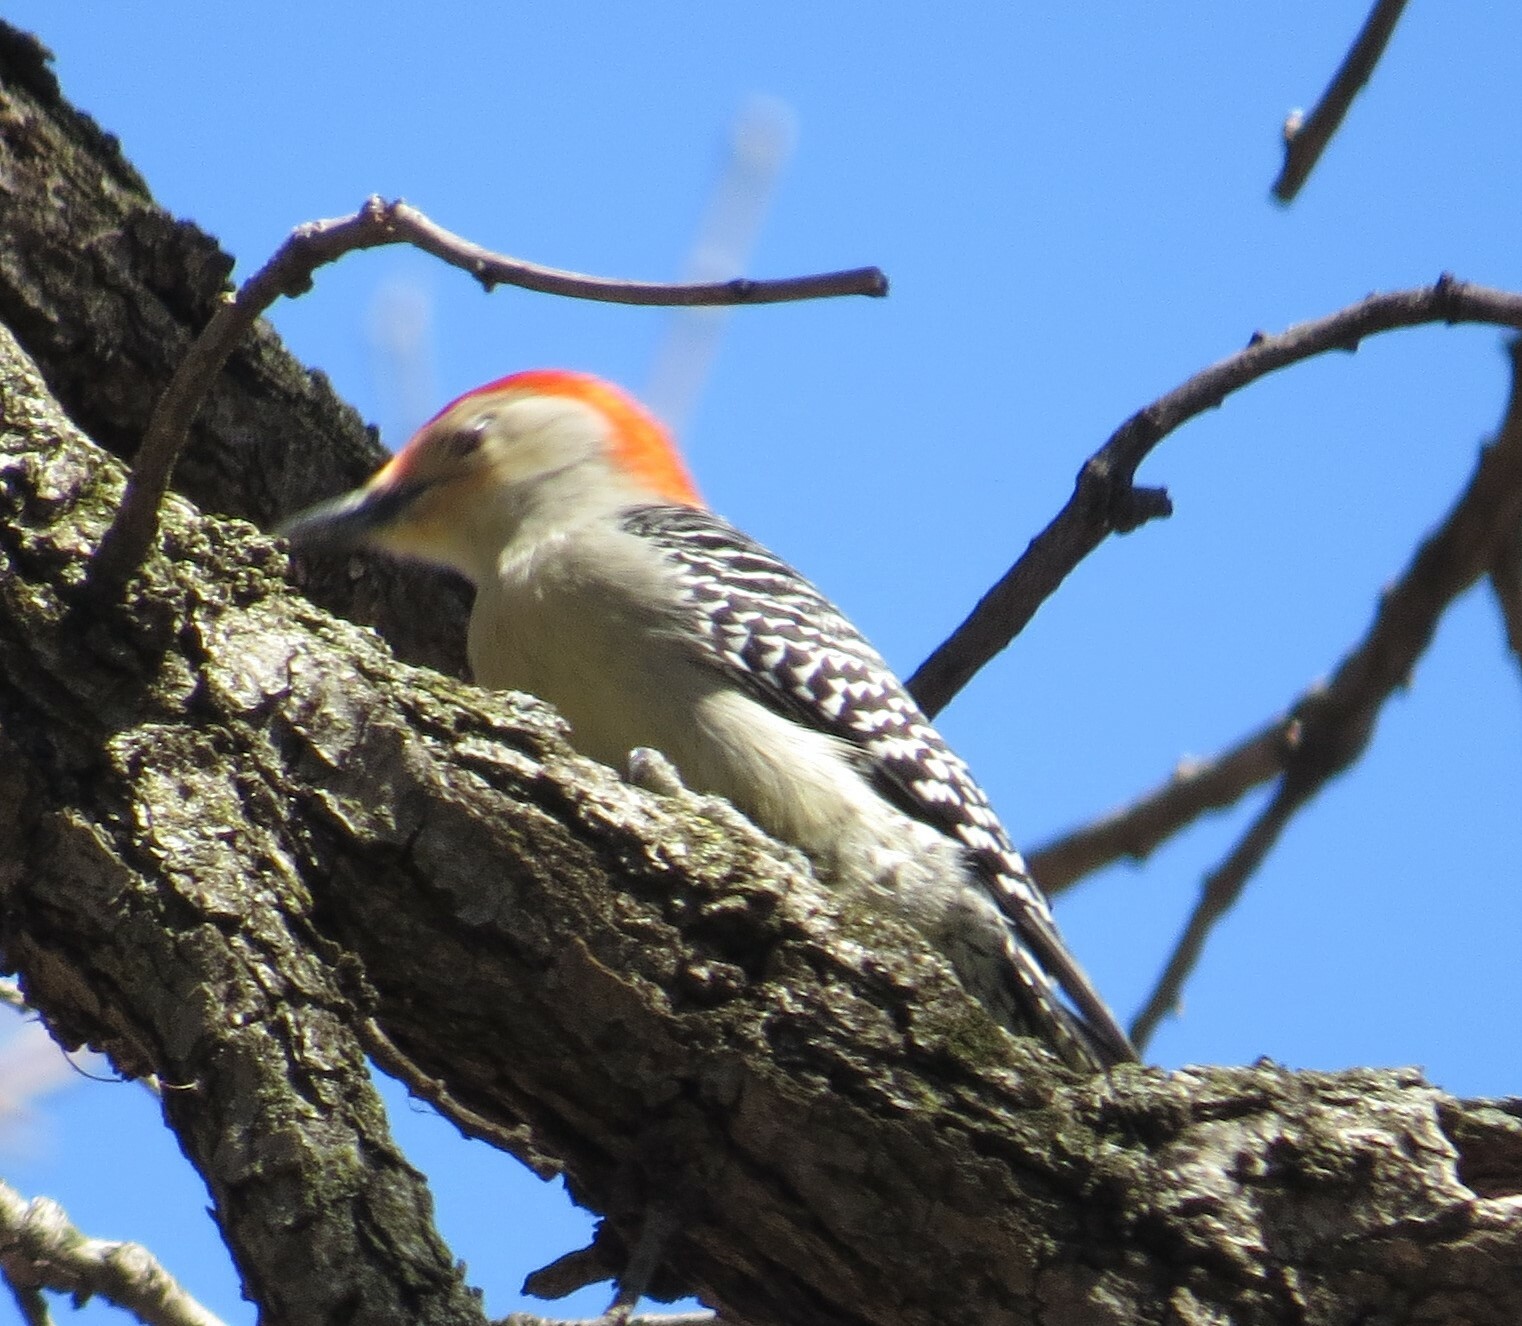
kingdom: Animalia
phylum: Chordata
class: Aves
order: Piciformes
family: Picidae
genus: Melanerpes
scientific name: Melanerpes carolinus
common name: Red-bellied woodpecker
